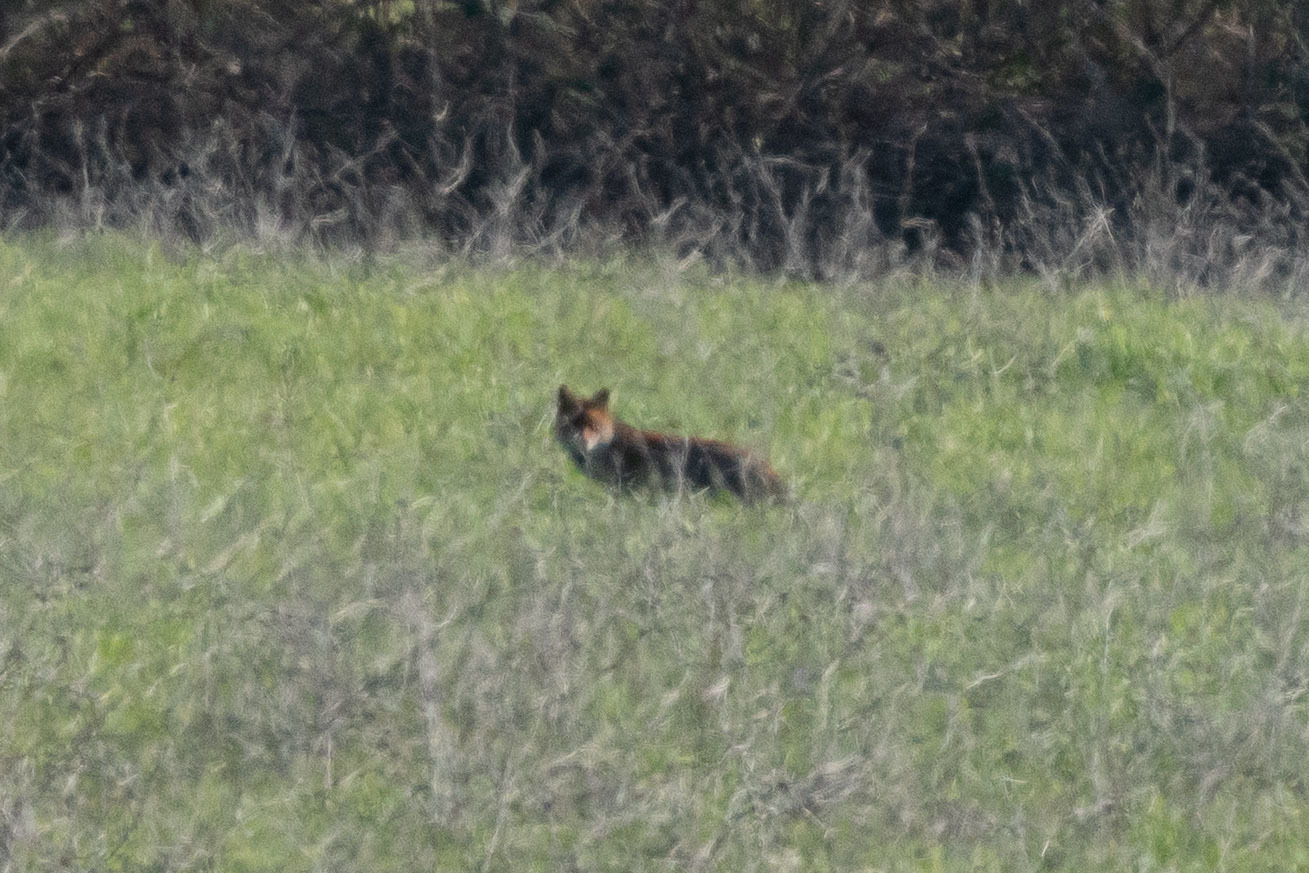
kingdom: Animalia
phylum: Chordata
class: Mammalia
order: Carnivora
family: Canidae
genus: Vulpes
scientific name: Vulpes vulpes
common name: Red fox
